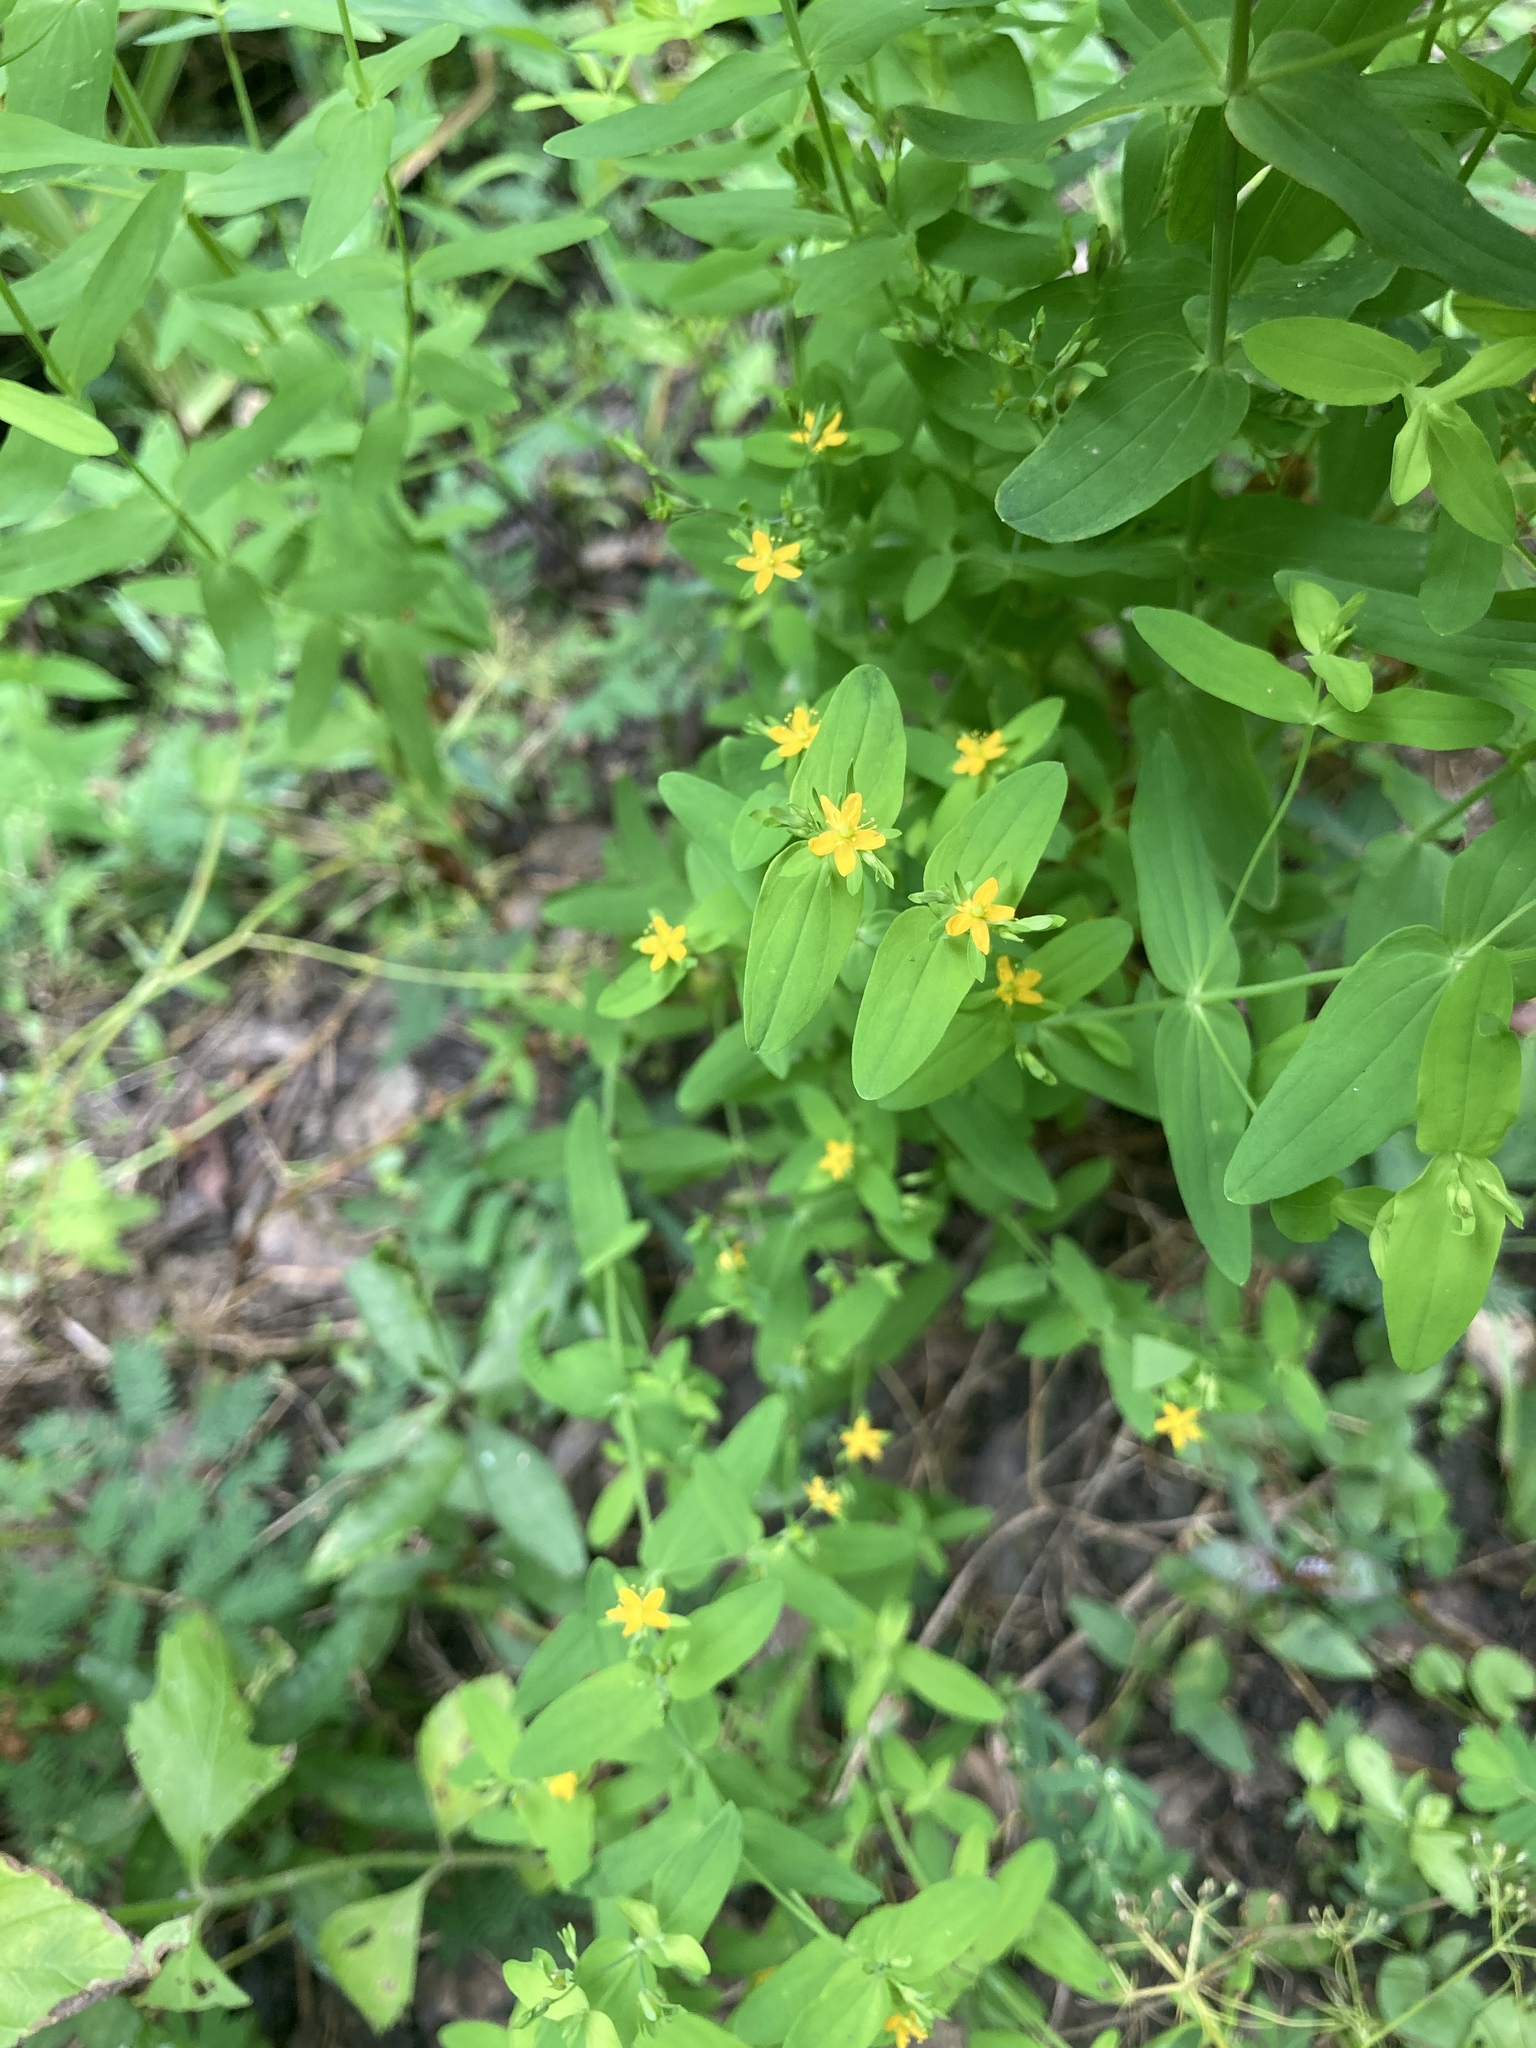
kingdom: Plantae
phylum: Tracheophyta
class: Magnoliopsida
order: Malpighiales
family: Hypericaceae
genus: Hypericum
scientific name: Hypericum mutilum
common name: Dwarf st. john's-wort
